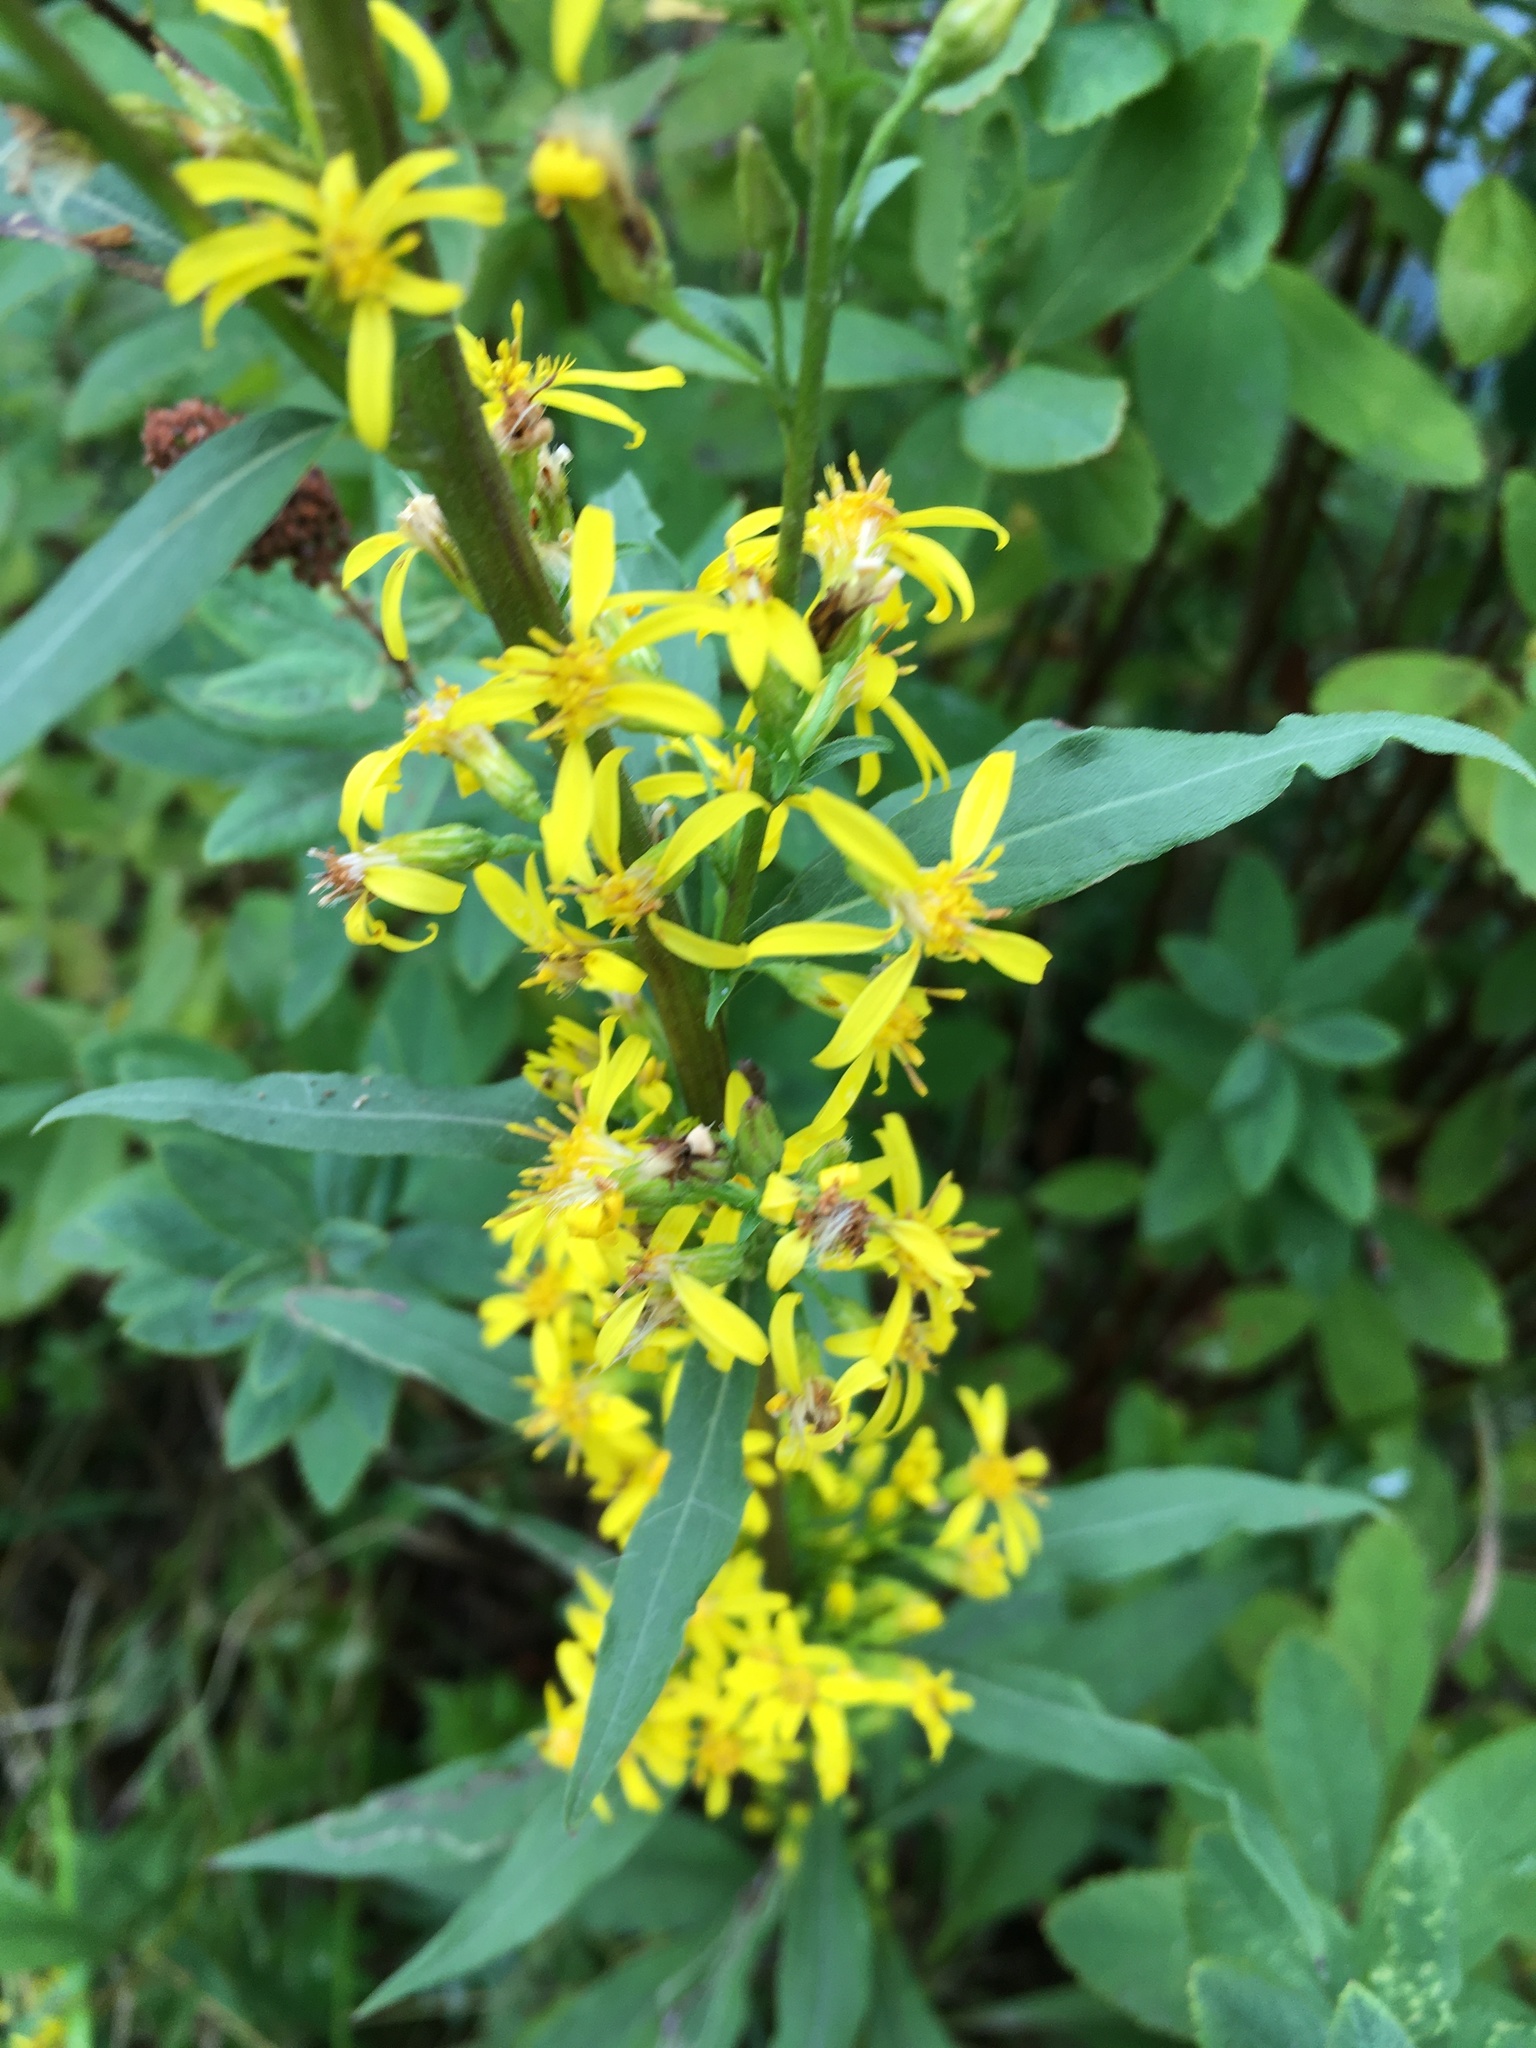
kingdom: Plantae
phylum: Tracheophyta
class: Magnoliopsida
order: Asterales
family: Asteraceae
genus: Solidago
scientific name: Solidago virgaurea
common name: Goldenrod
